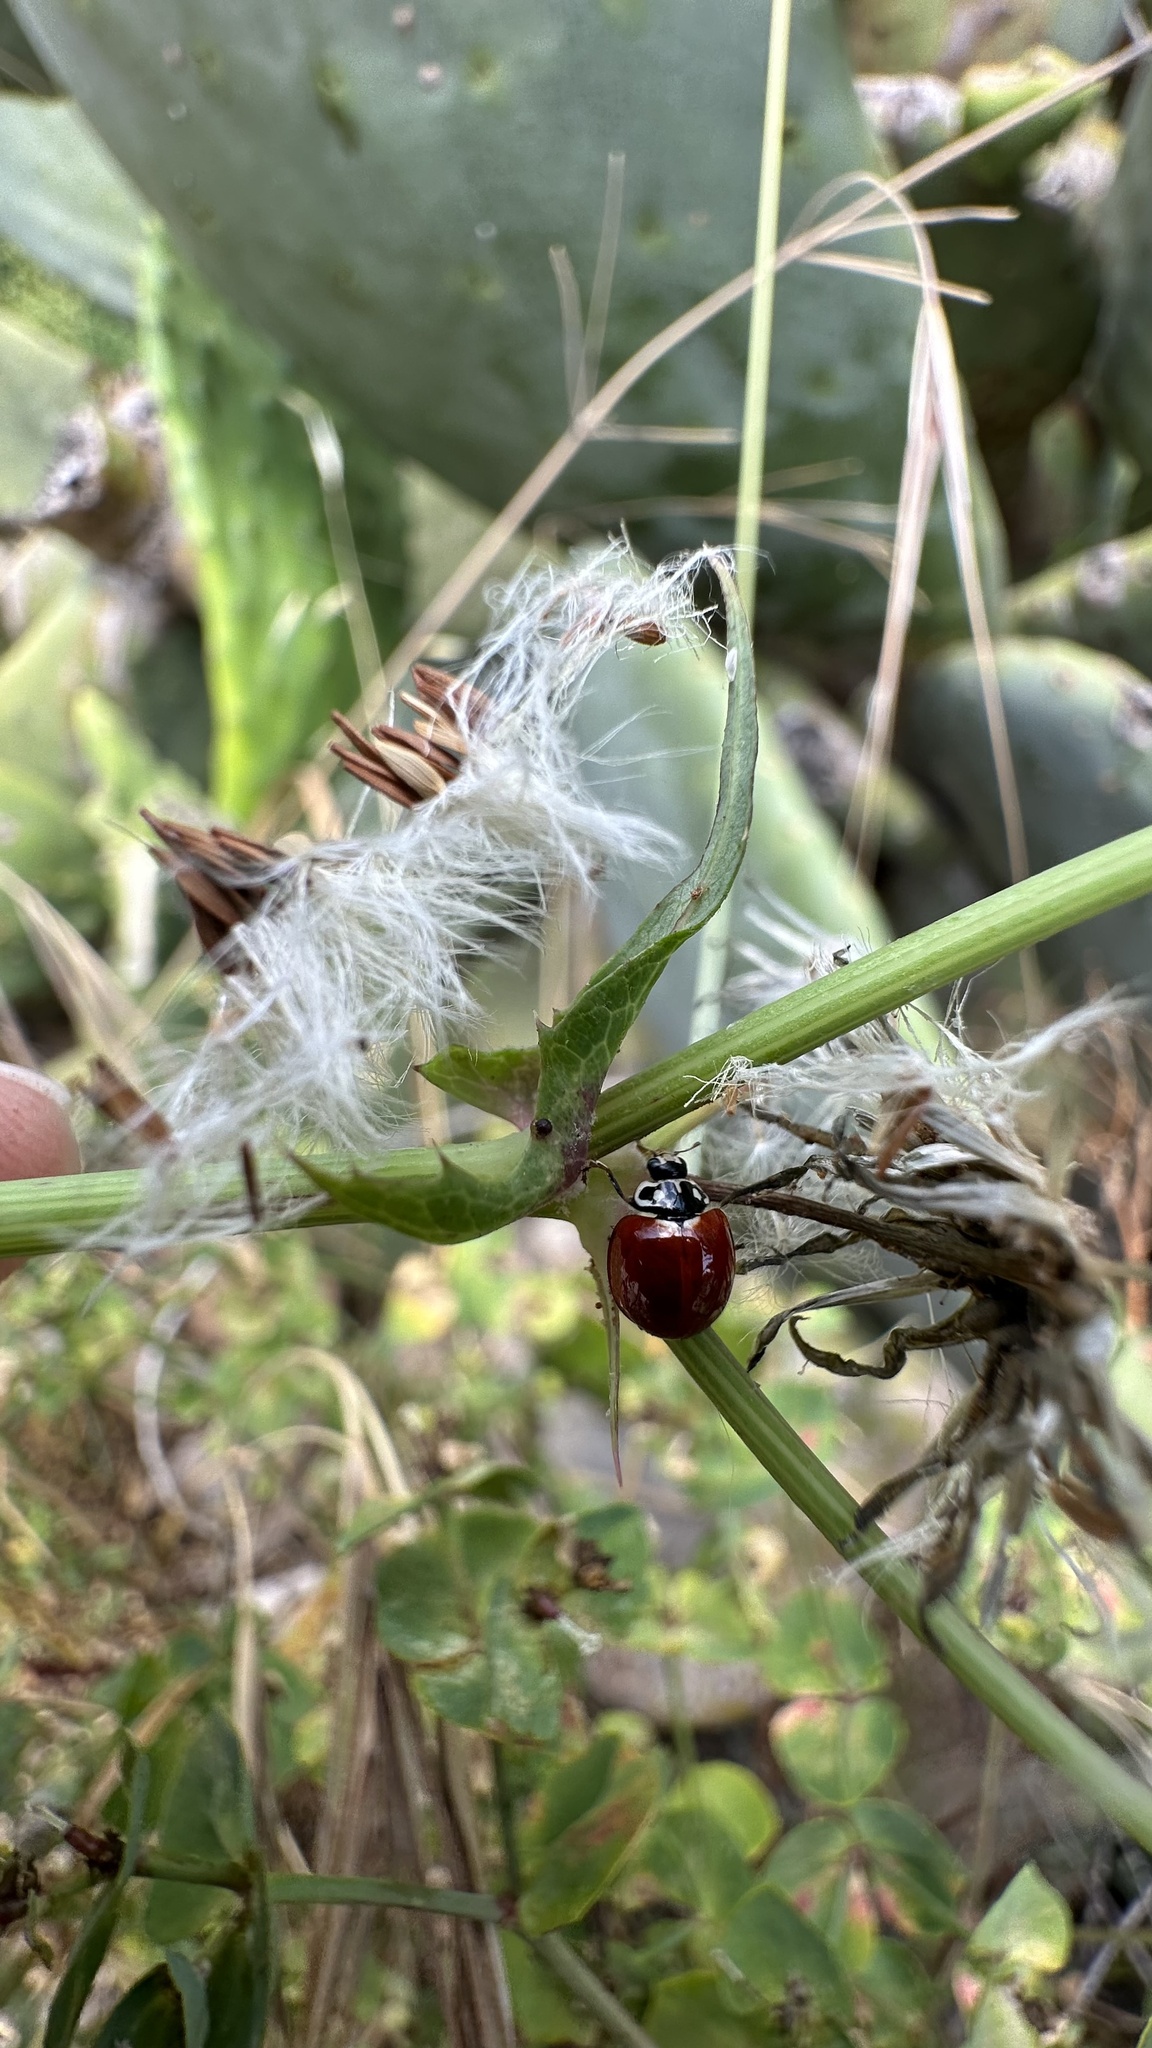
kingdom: Animalia
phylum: Arthropoda
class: Insecta
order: Coleoptera
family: Coccinellidae
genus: Cycloneda
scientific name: Cycloneda sanguinea
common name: Ladybird beetle
